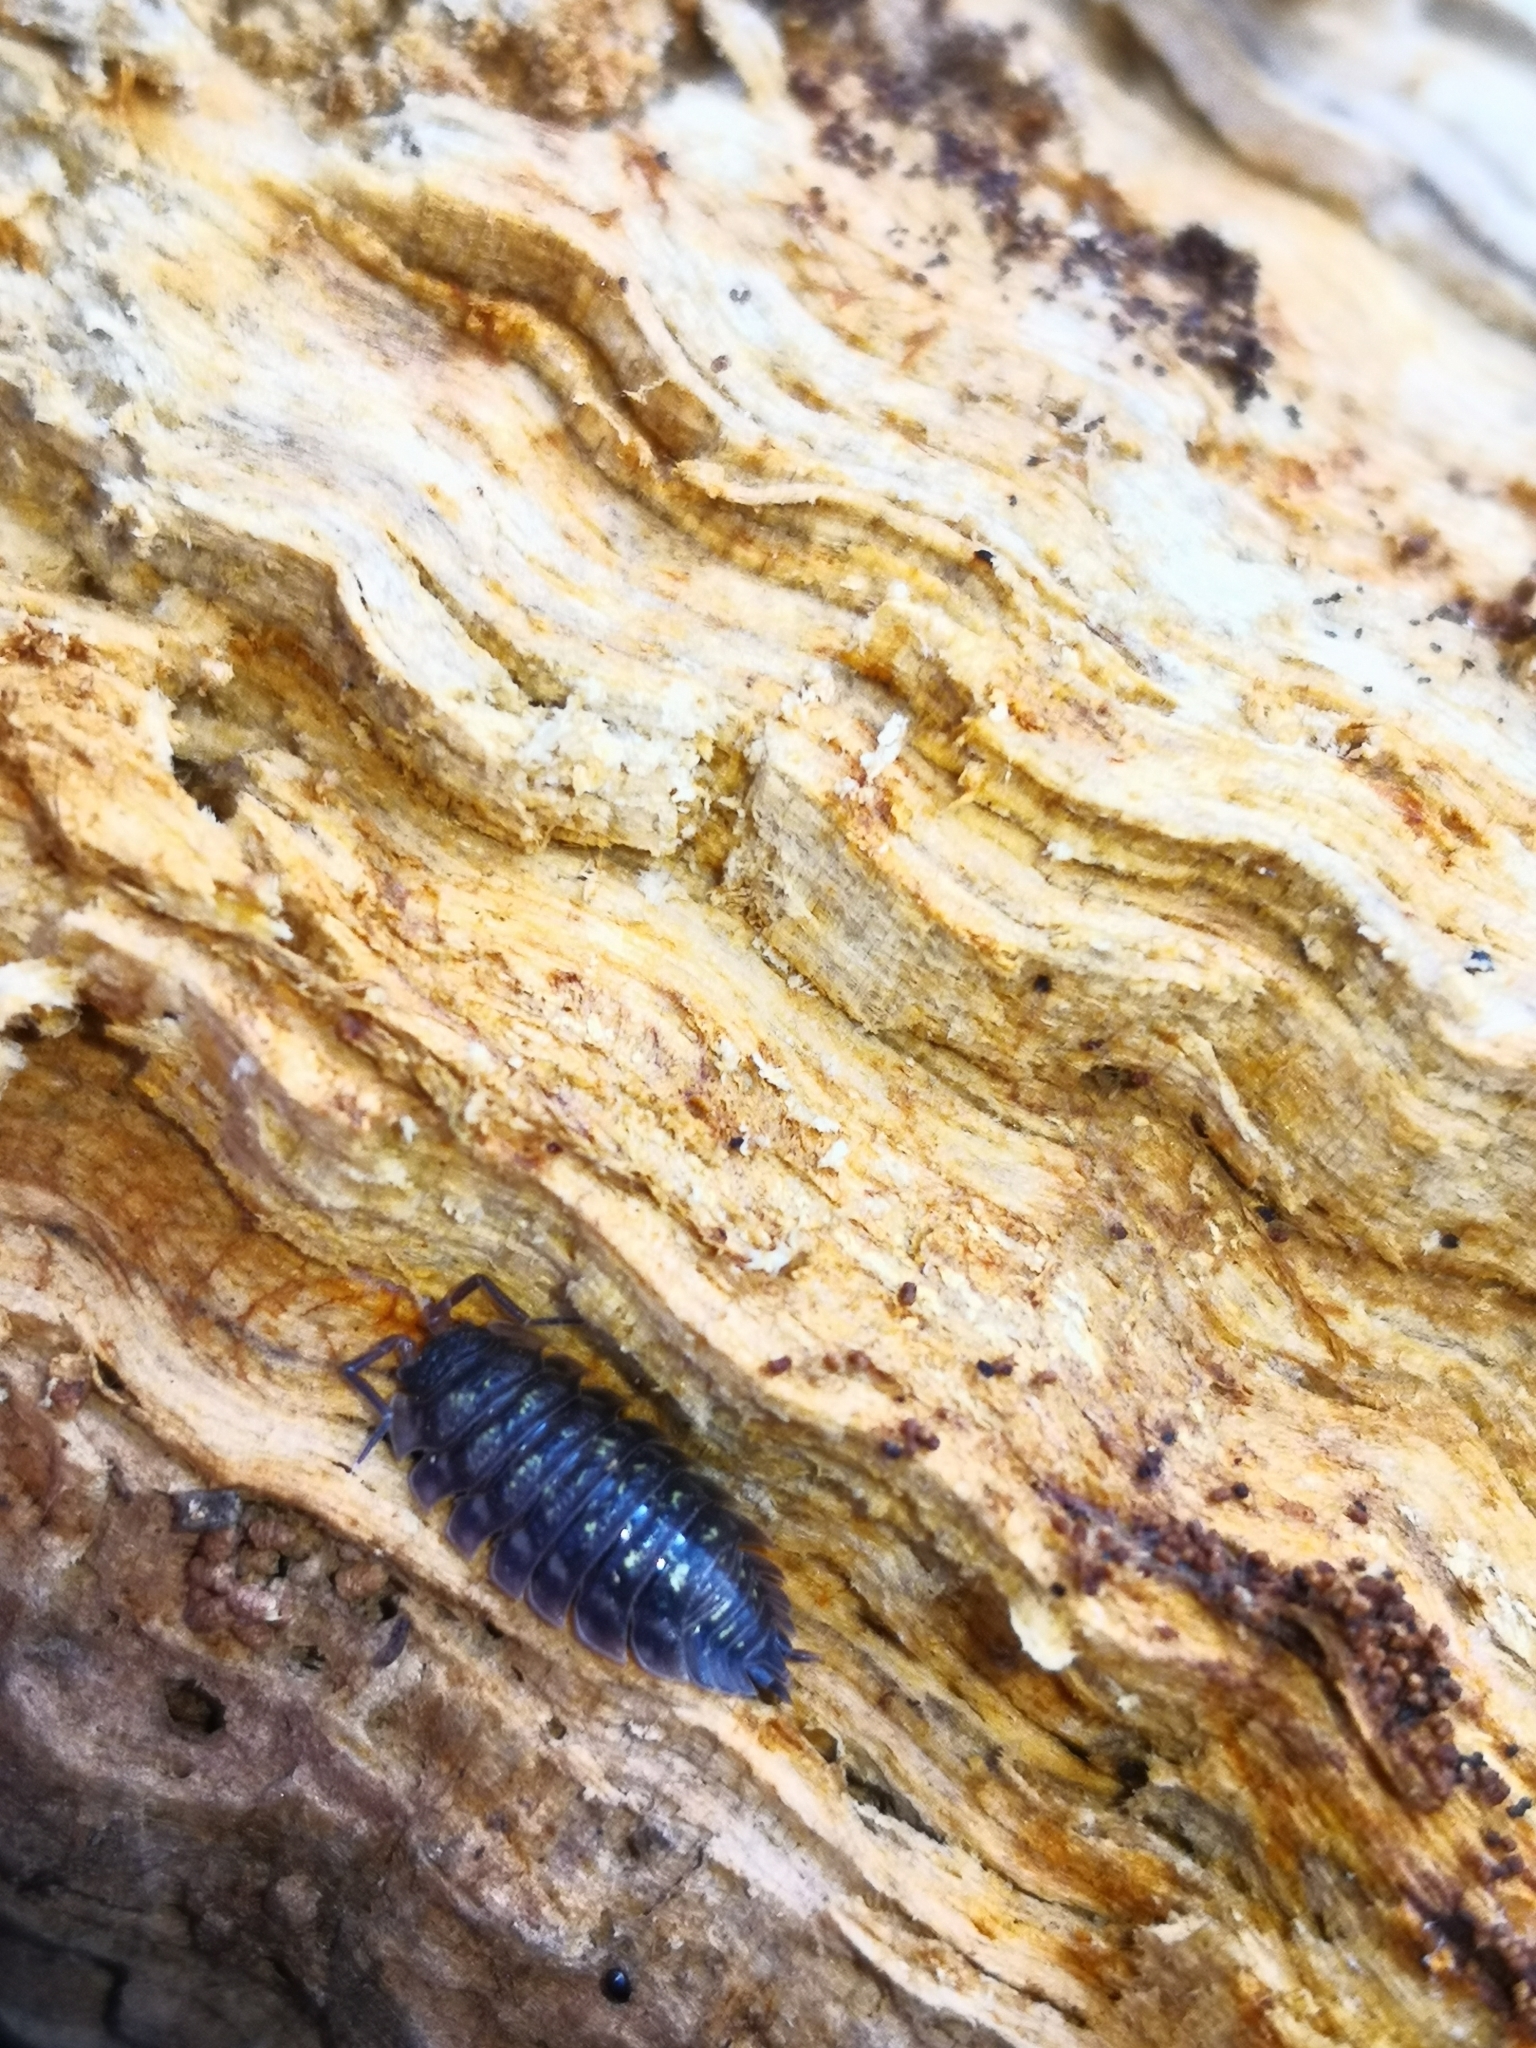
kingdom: Animalia
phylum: Arthropoda
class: Malacostraca
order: Isopoda
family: Oniscidae
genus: Oniscus
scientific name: Oniscus asellus
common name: Common shiny woodlouse
